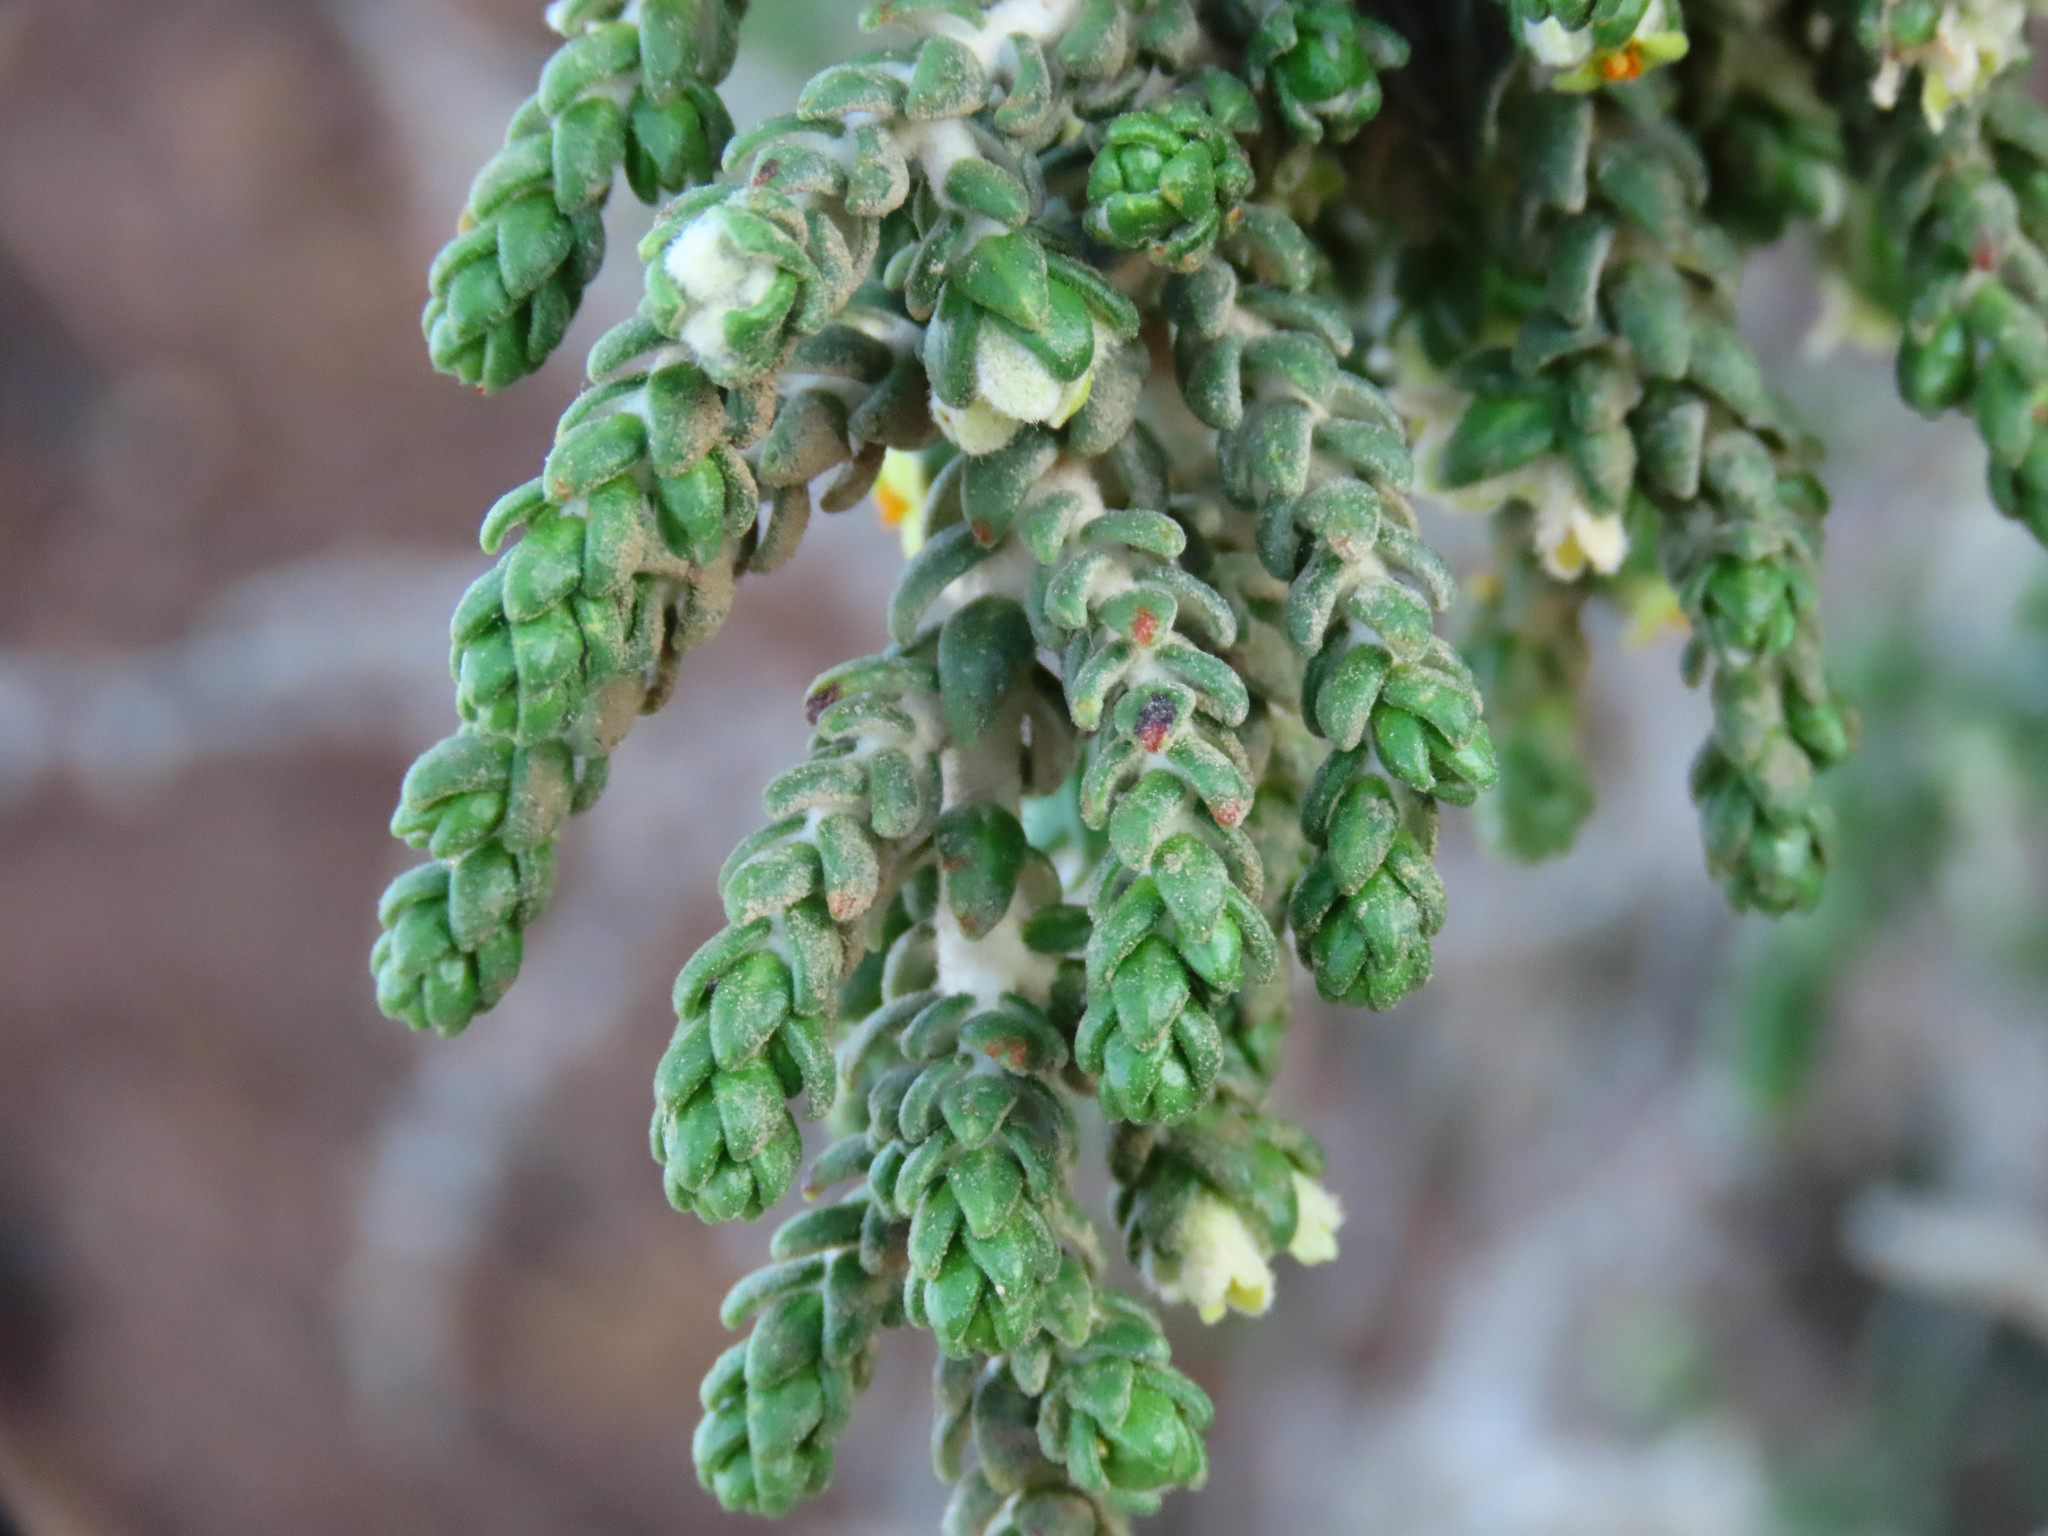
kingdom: Plantae
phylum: Tracheophyta
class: Magnoliopsida
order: Malvales
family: Thymelaeaceae
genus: Thymelaea
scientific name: Thymelaea hirsuta
